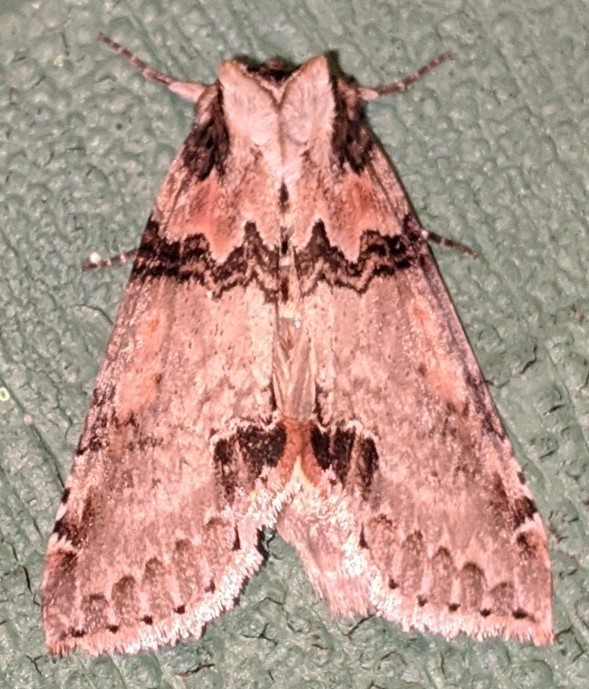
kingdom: Animalia
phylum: Arthropoda
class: Insecta
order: Lepidoptera
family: Drepanidae
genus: Pseudothyatira
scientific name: Pseudothyatira cymatophoroides
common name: Tufted thyatirid moth
